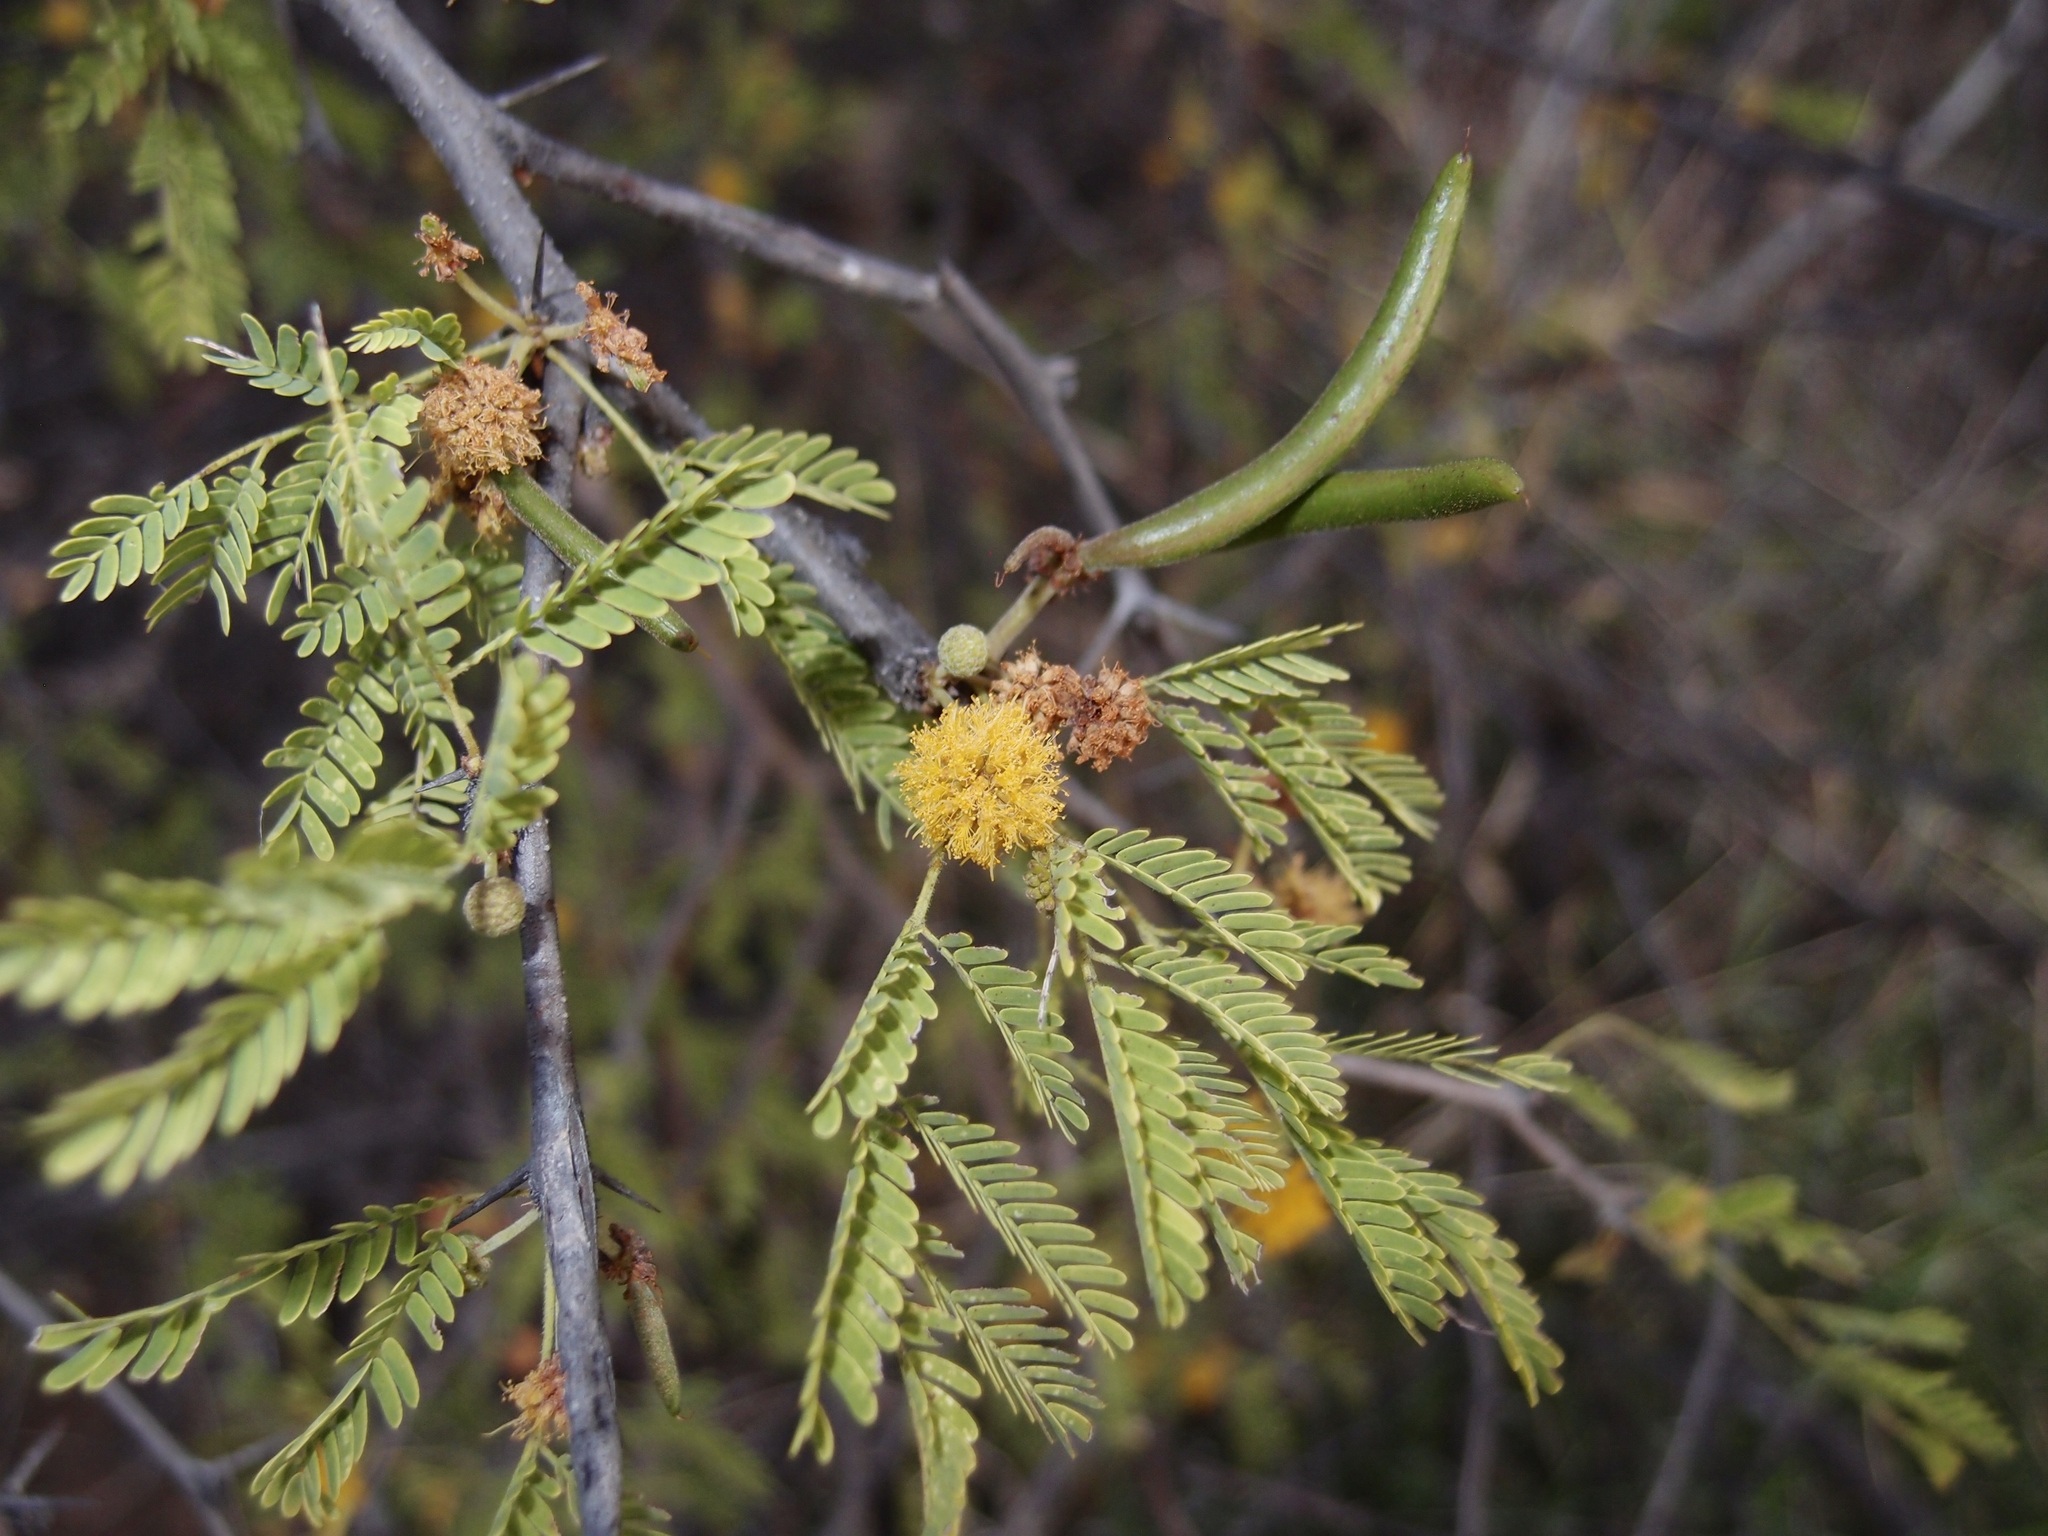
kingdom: Plantae
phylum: Tracheophyta
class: Magnoliopsida
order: Fabales
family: Fabaceae
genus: Vachellia
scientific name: Vachellia farnesiana
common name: Sweet acacia
